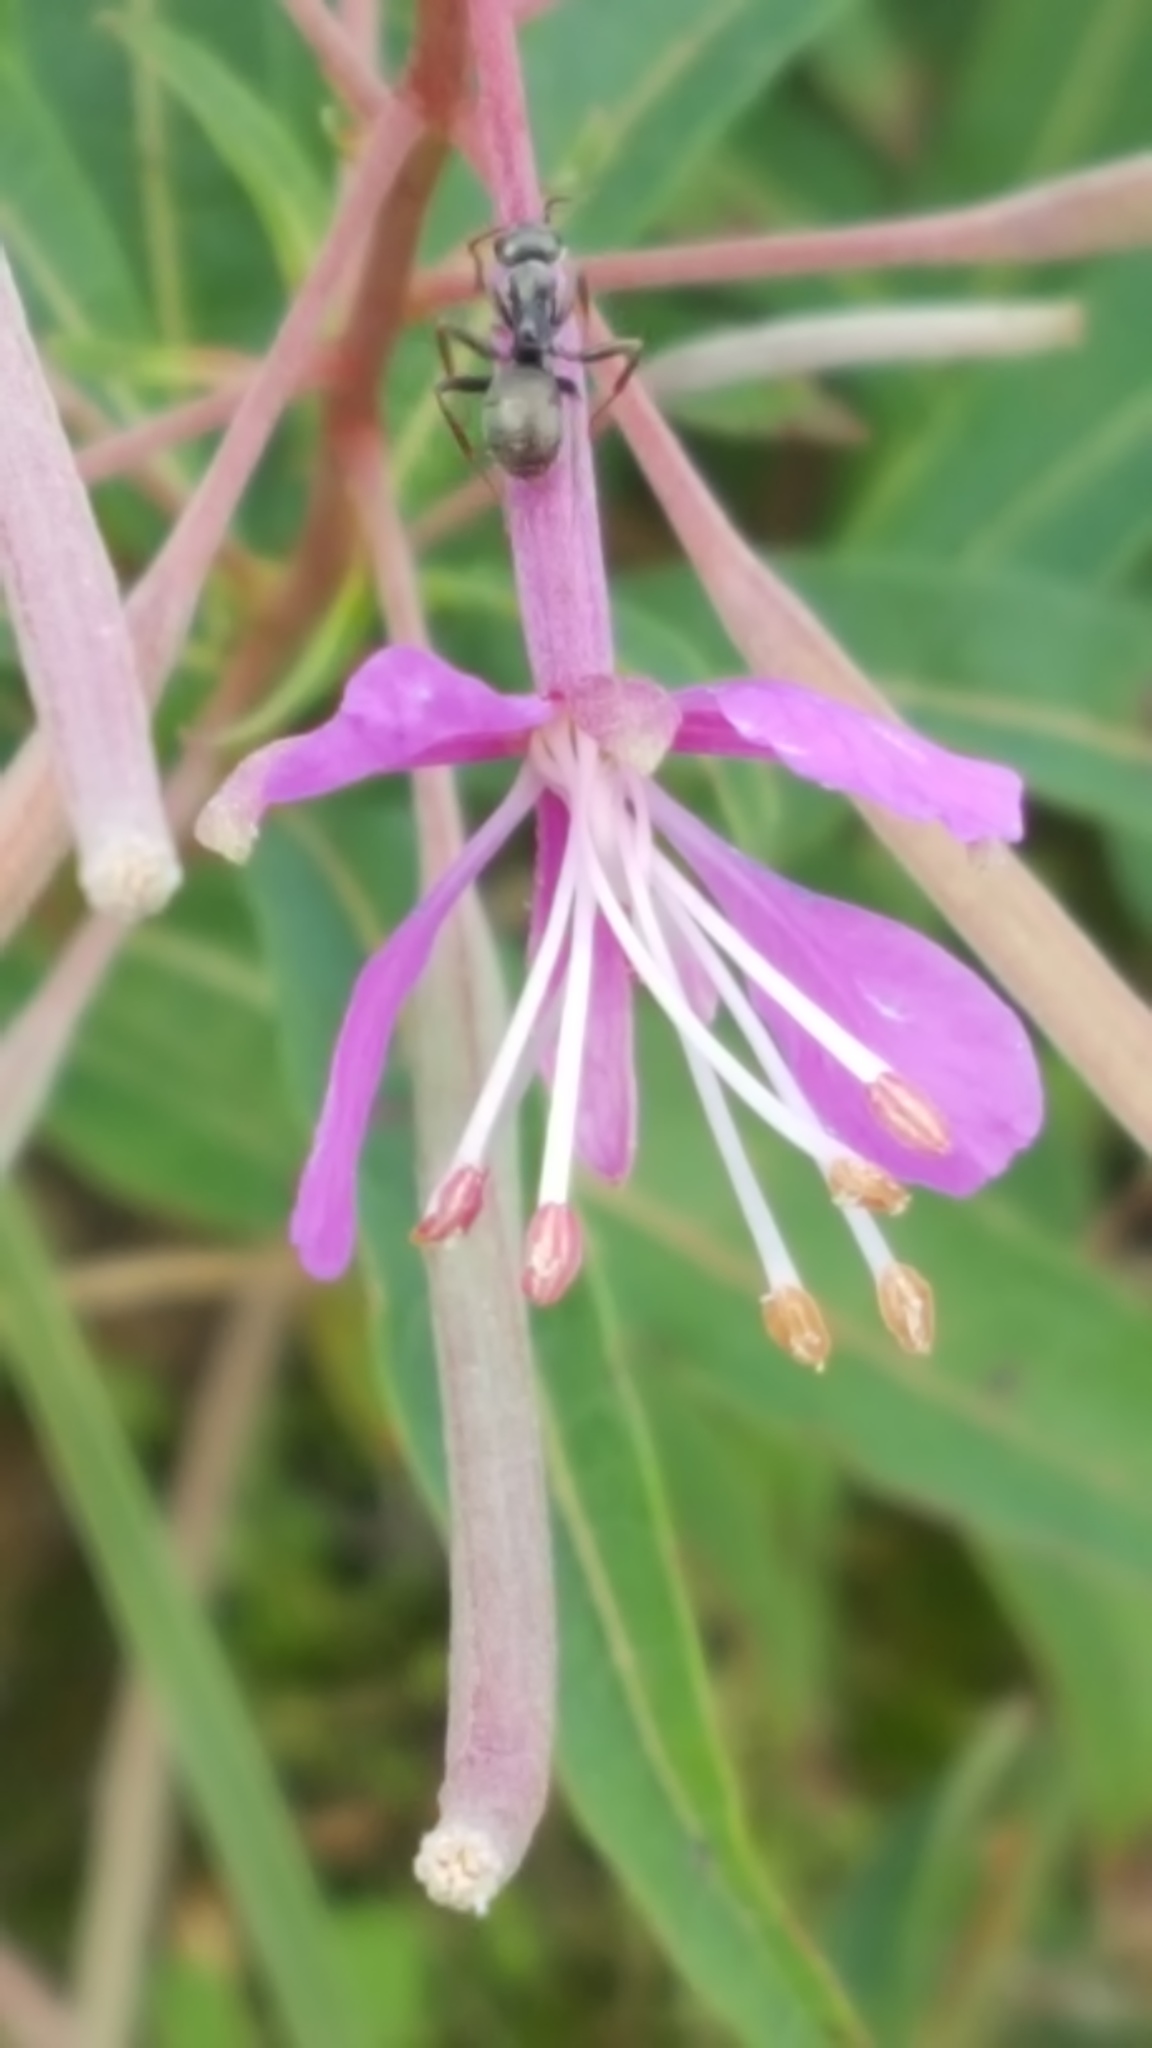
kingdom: Plantae
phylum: Tracheophyta
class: Magnoliopsida
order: Myrtales
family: Onagraceae
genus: Chamaenerion
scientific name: Chamaenerion angustifolium
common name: Fireweed
